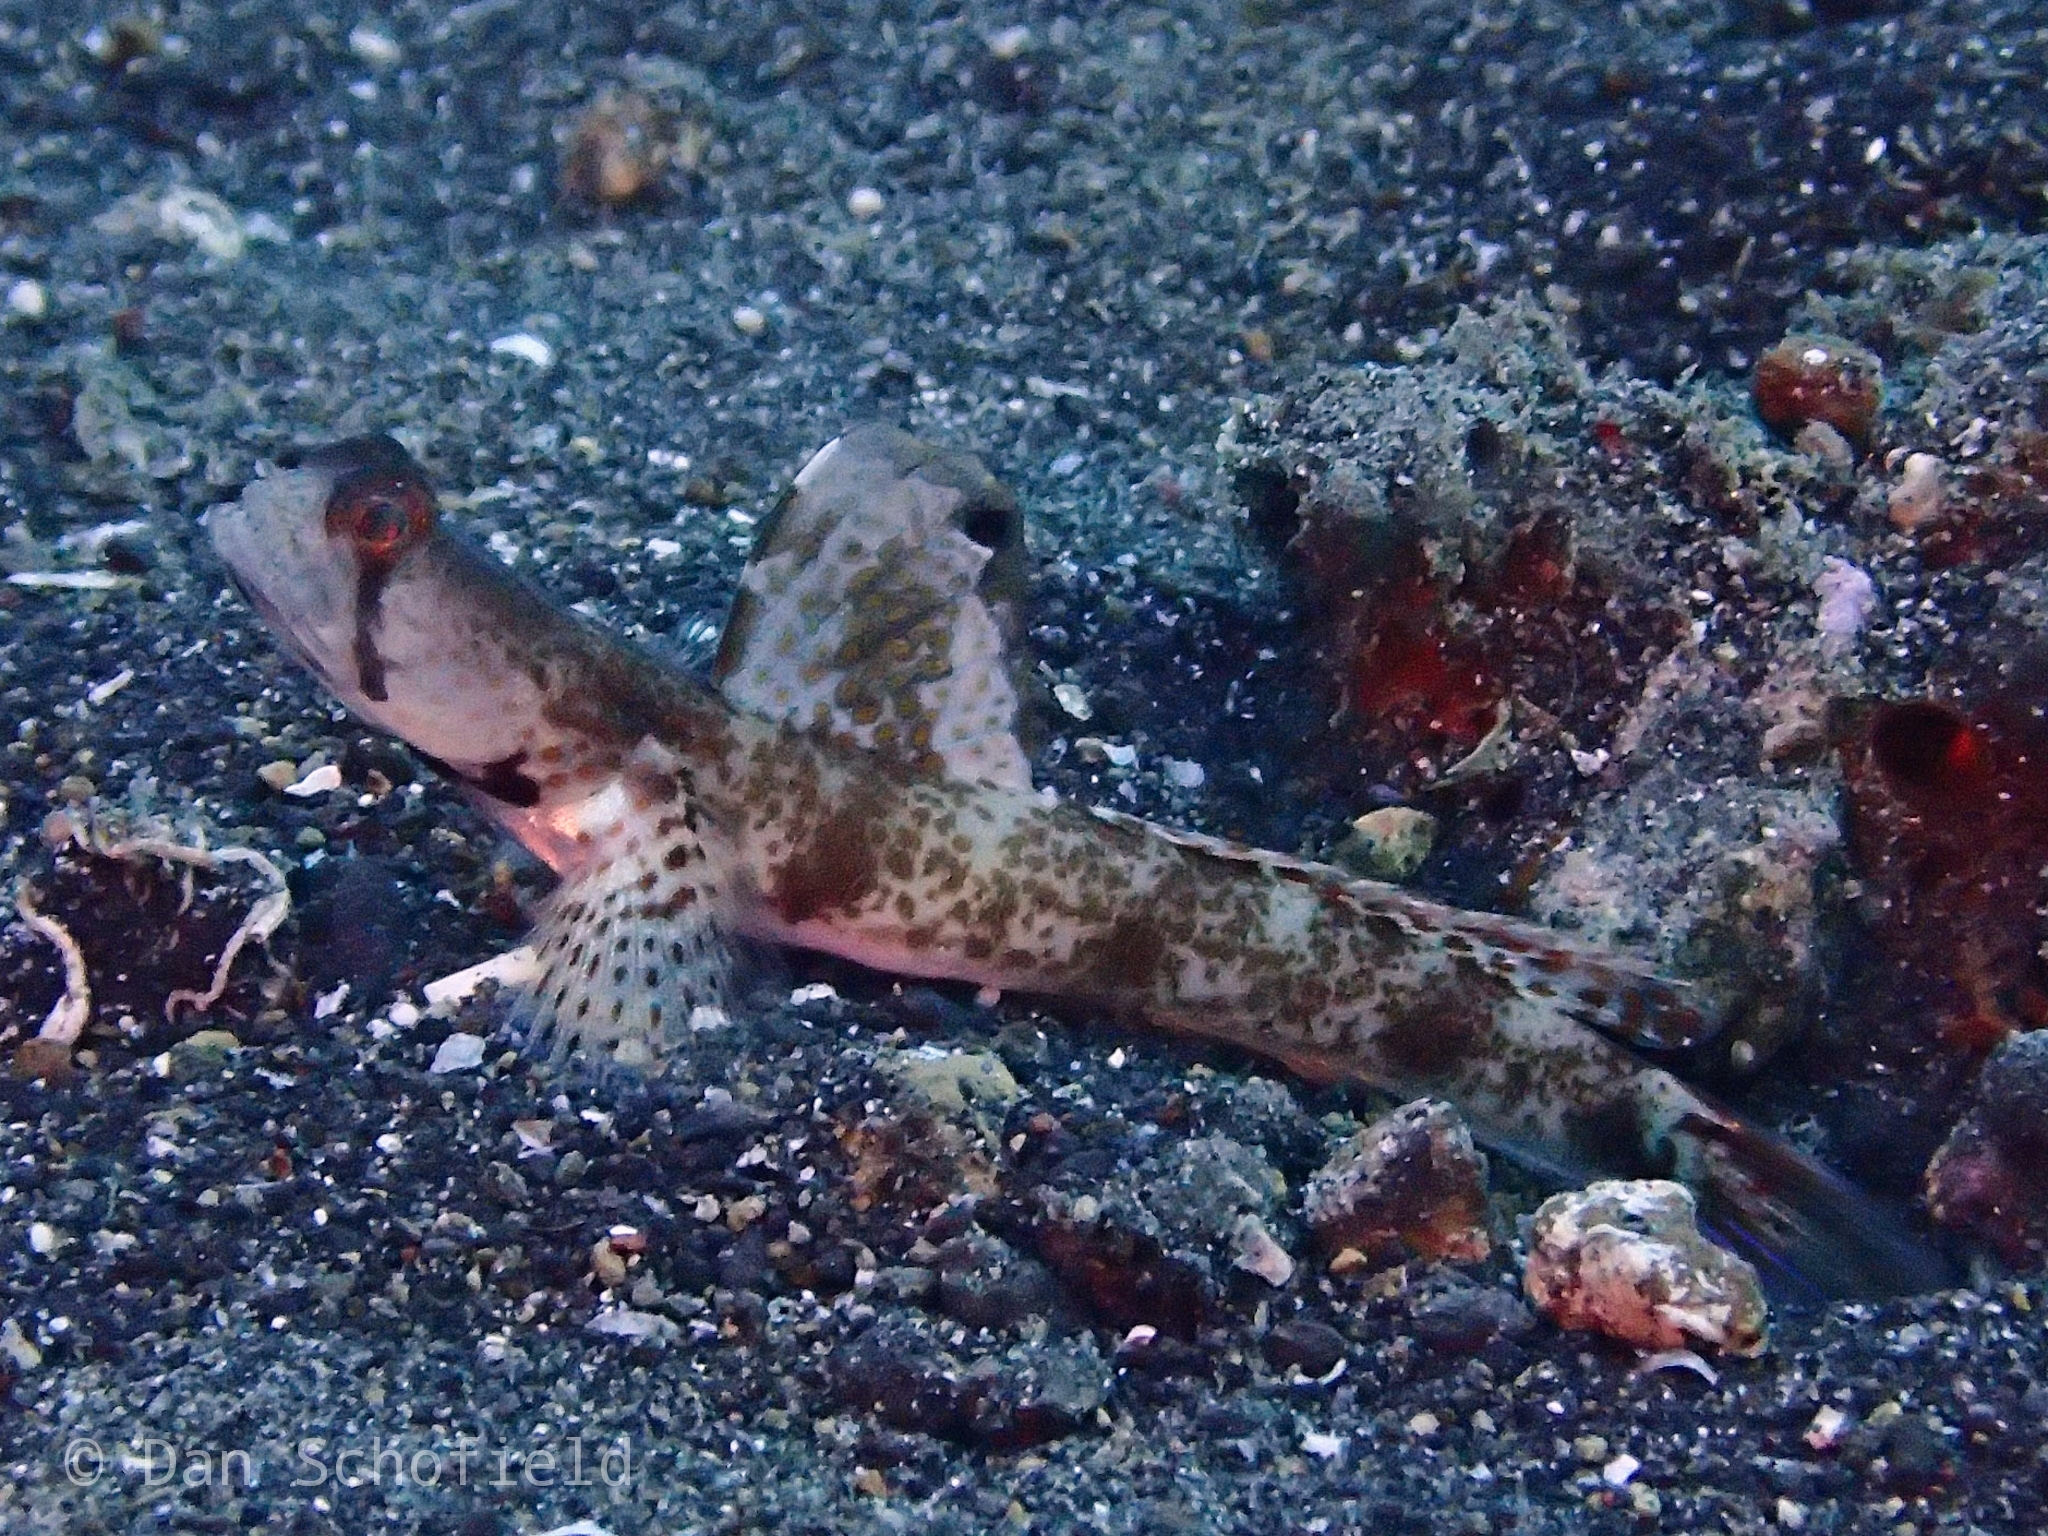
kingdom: Animalia
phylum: Chordata
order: Perciformes
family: Gobiidae
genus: Tomiyamichthys
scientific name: Tomiyamichthys oni
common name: Monster shrimpgoby
